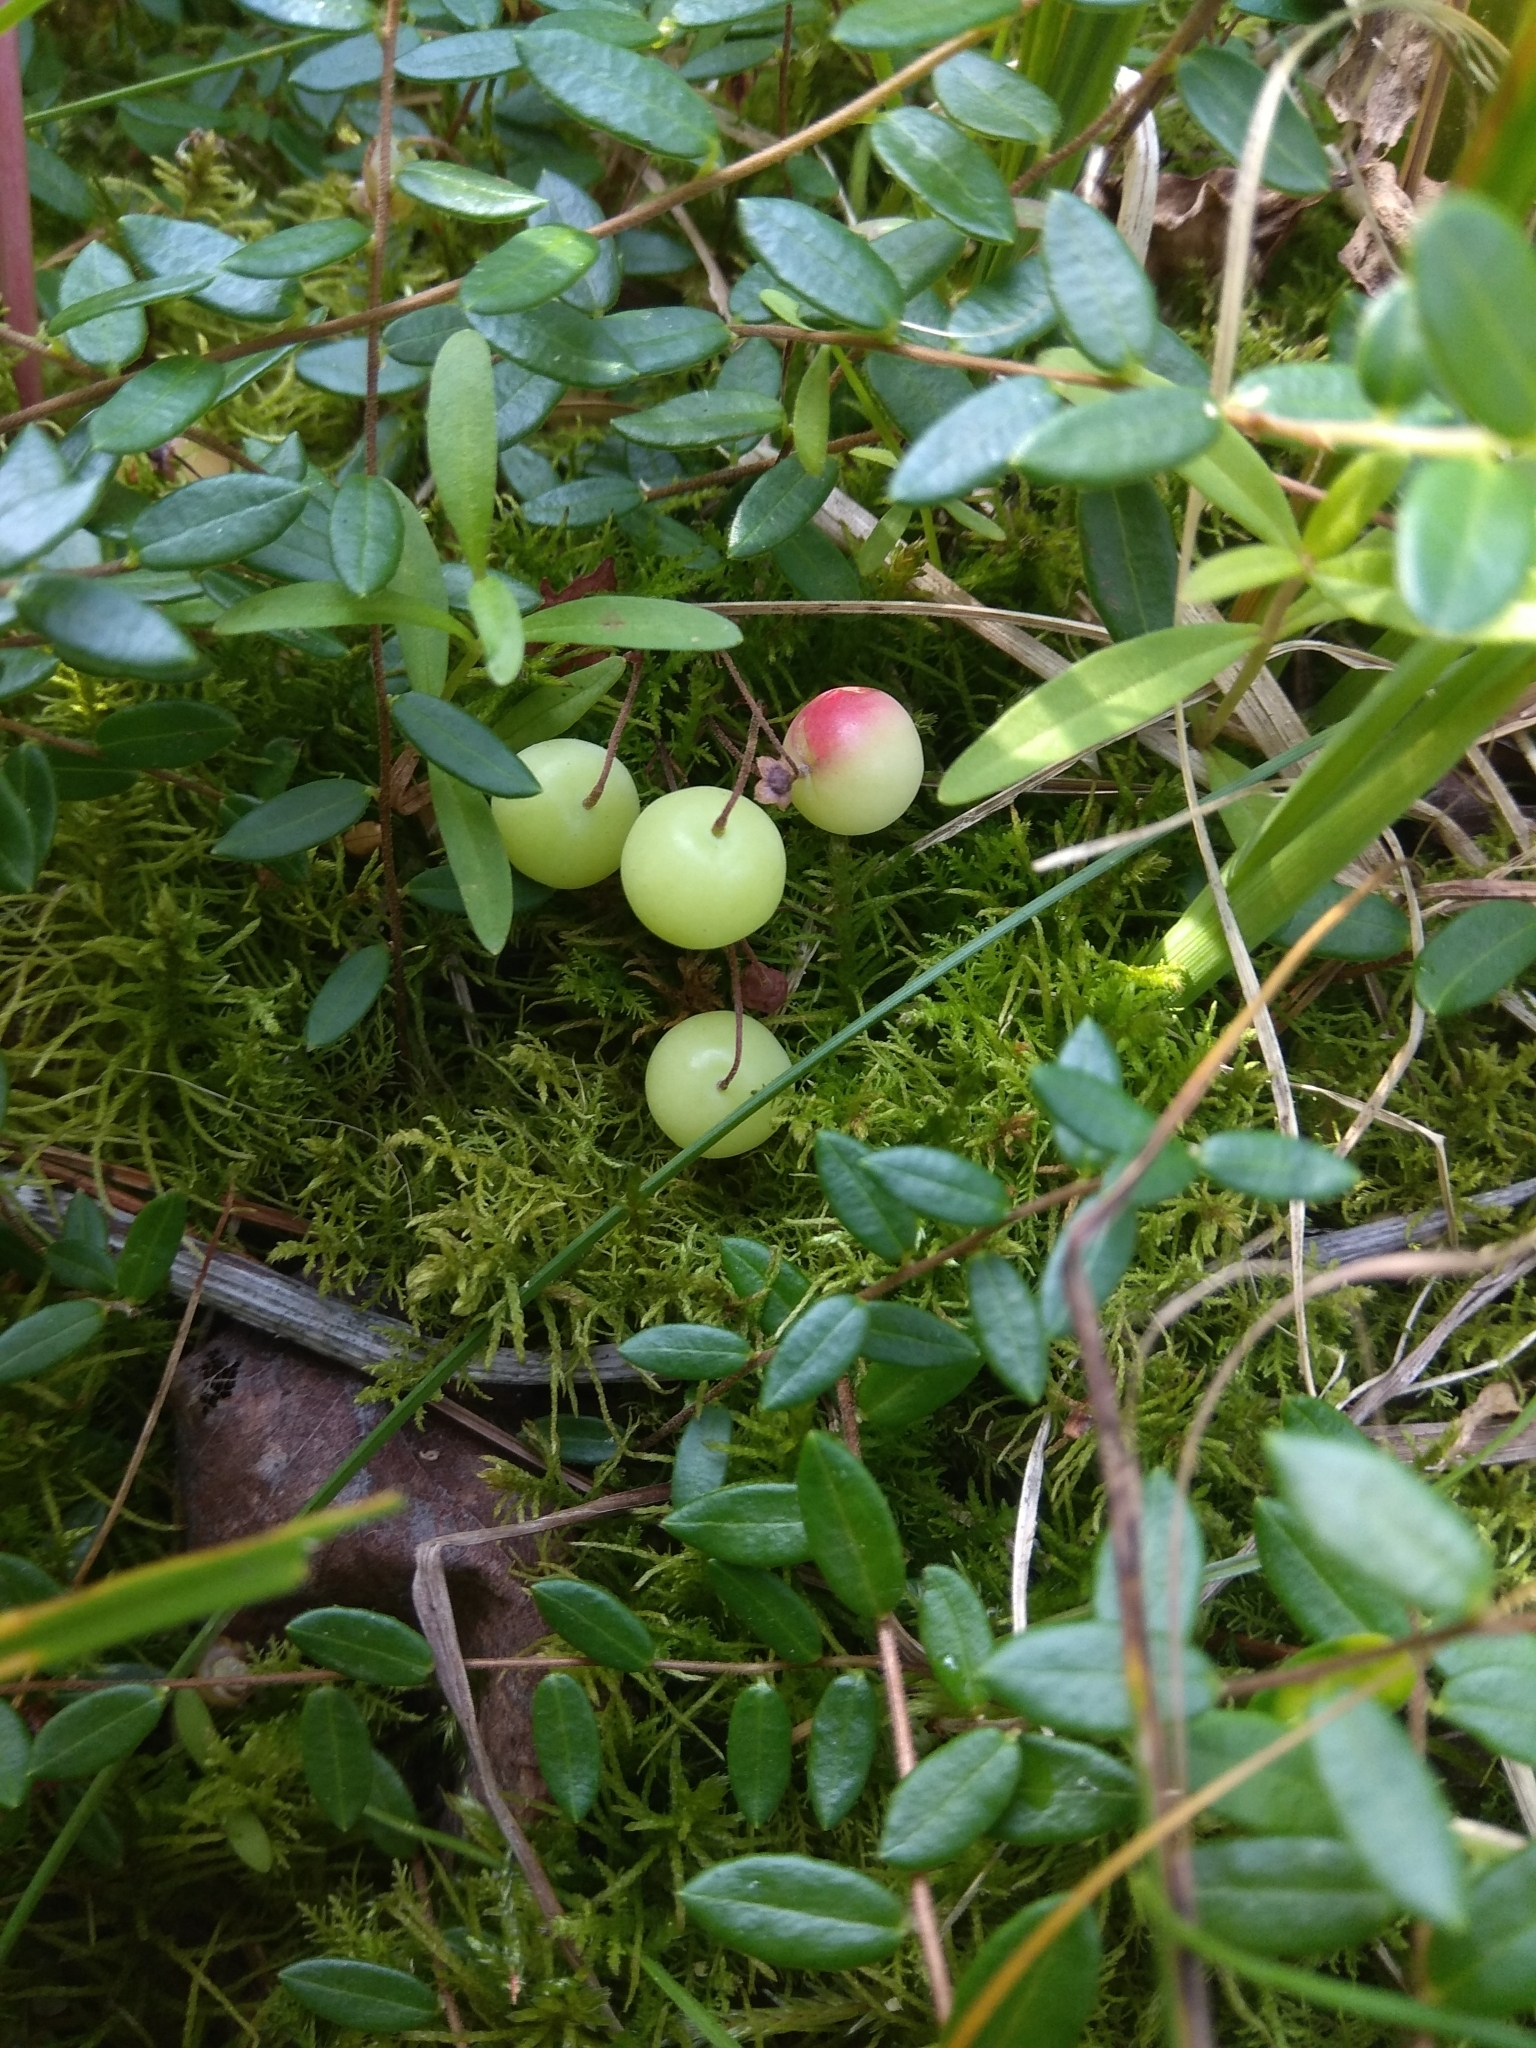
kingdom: Plantae
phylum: Tracheophyta
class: Magnoliopsida
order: Ericales
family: Ericaceae
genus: Vaccinium
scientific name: Vaccinium oxycoccos
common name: Cranberry
